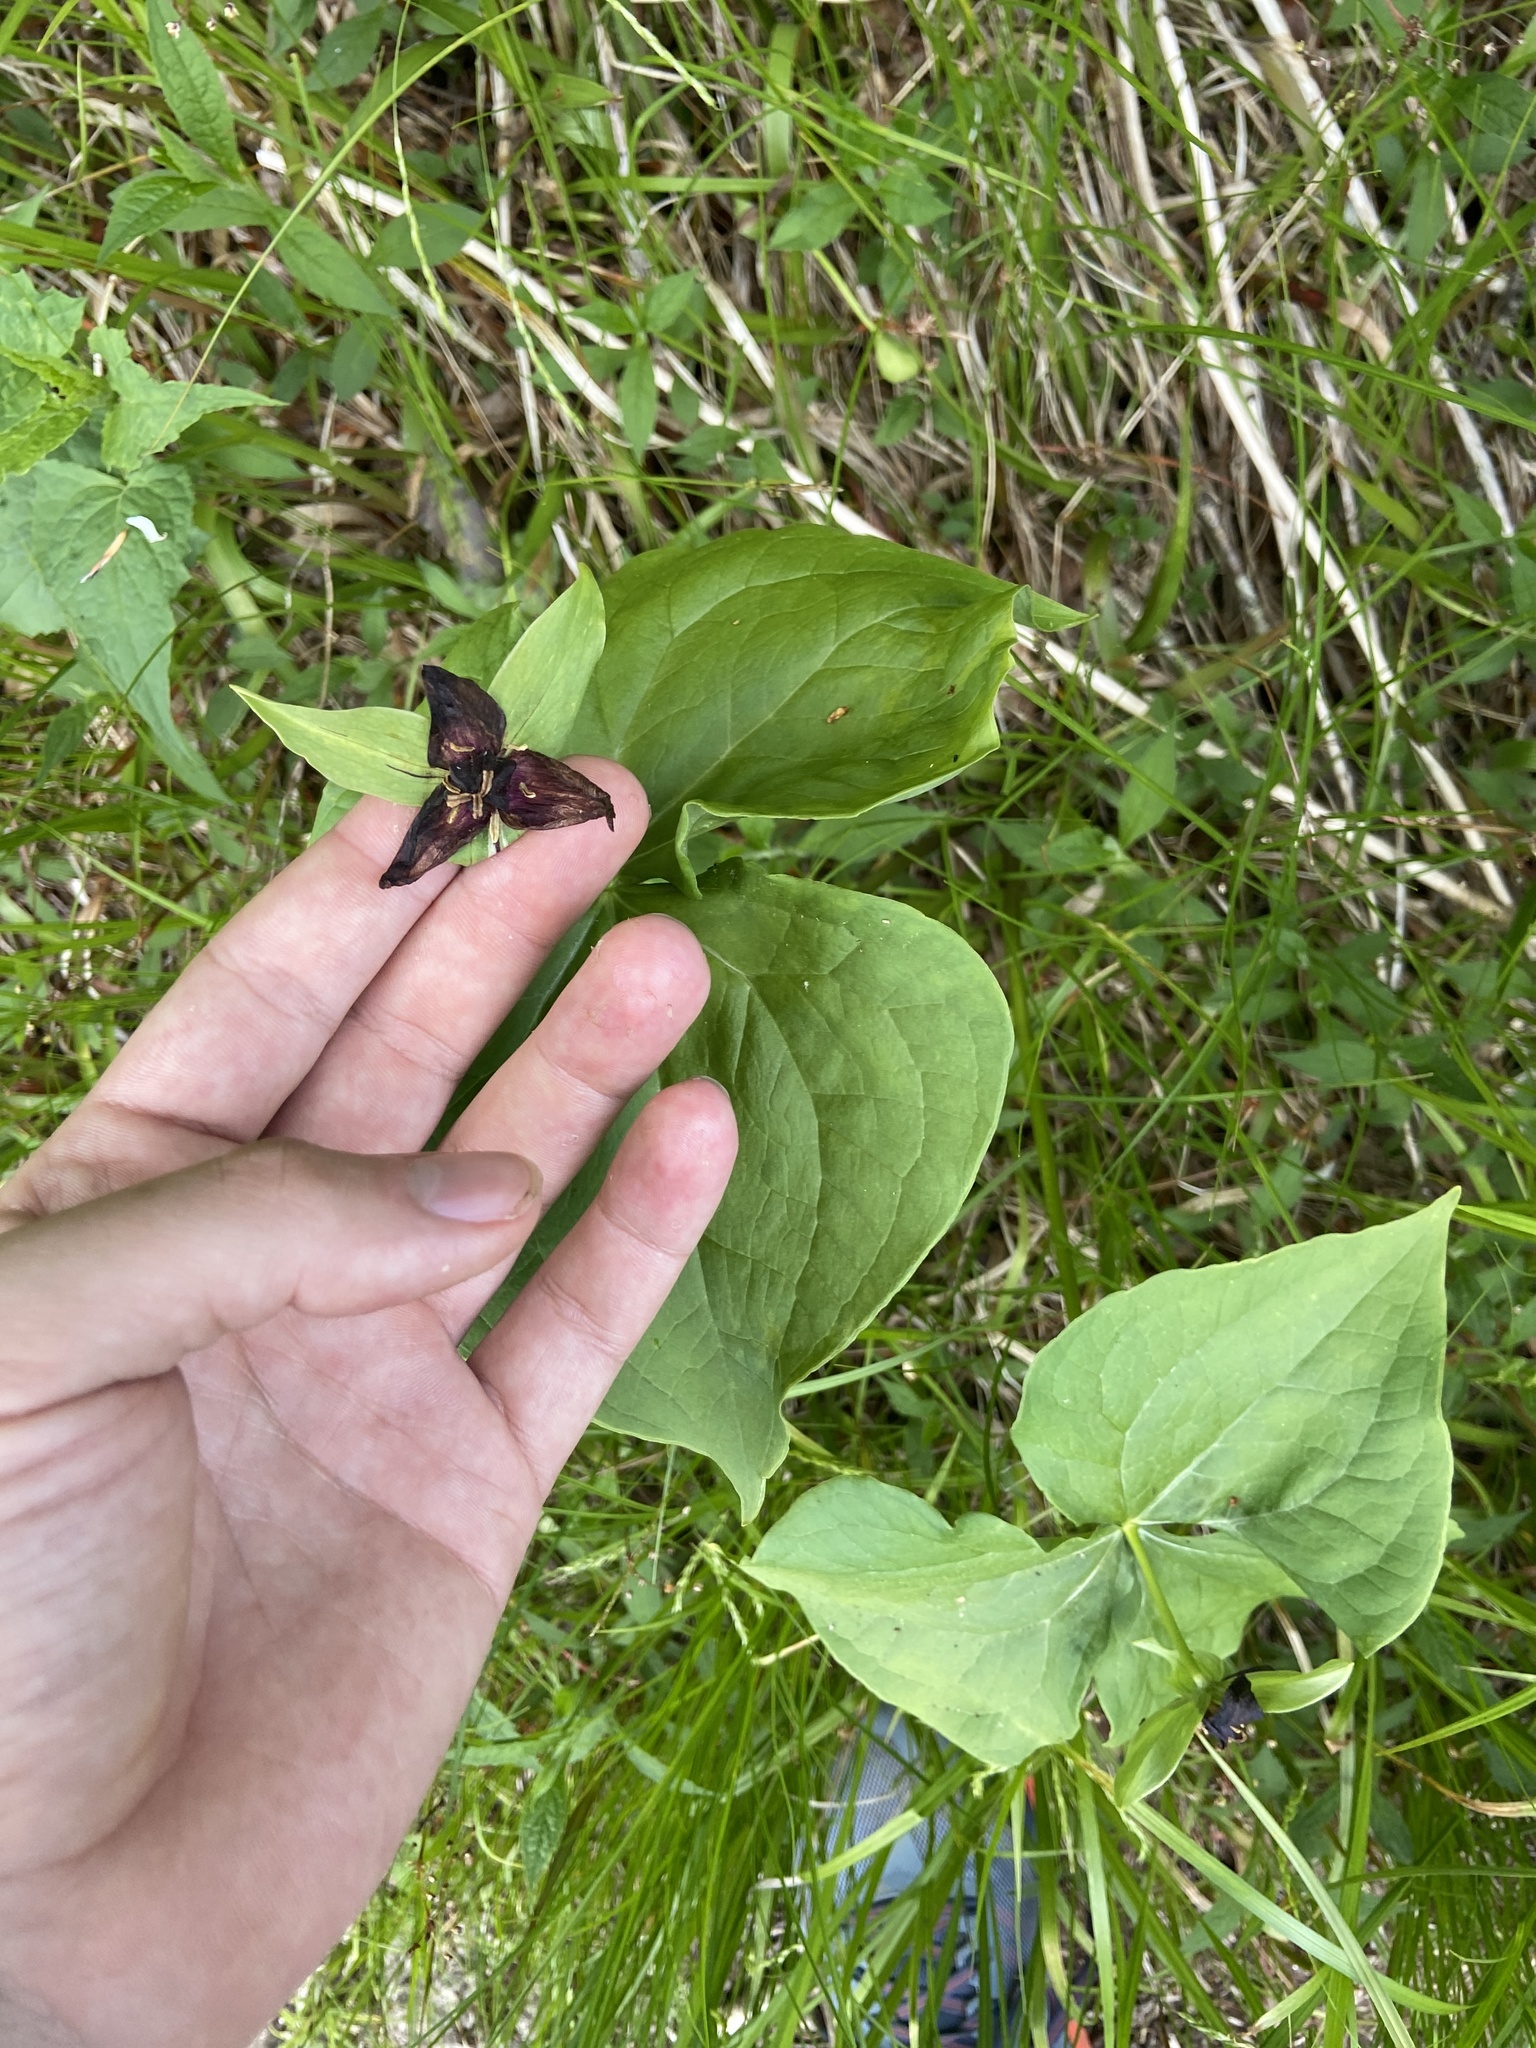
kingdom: Plantae
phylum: Tracheophyta
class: Liliopsida
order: Liliales
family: Melanthiaceae
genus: Trillium
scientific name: Trillium erectum
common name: Purple trillium
